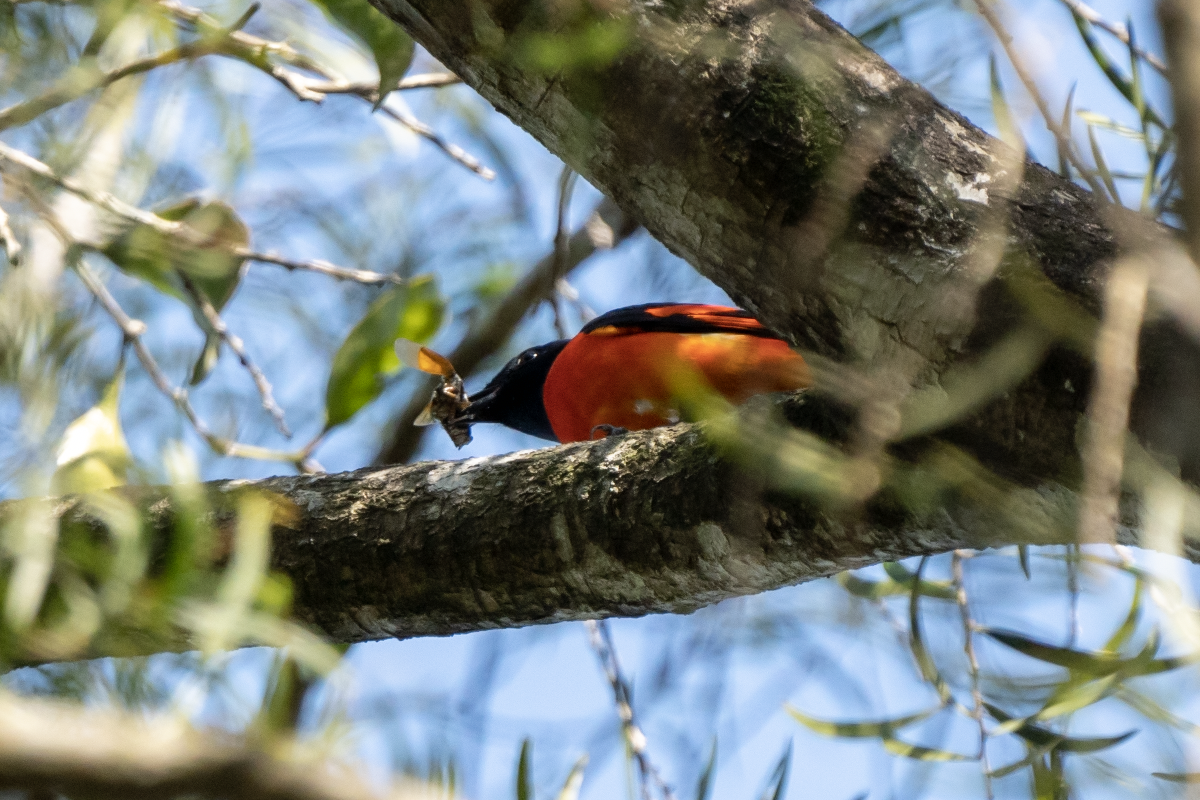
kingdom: Animalia
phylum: Chordata
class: Aves
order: Passeriformes
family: Campephagidae
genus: Pericrocotus
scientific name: Pericrocotus speciosus
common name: Scarlet minivet
